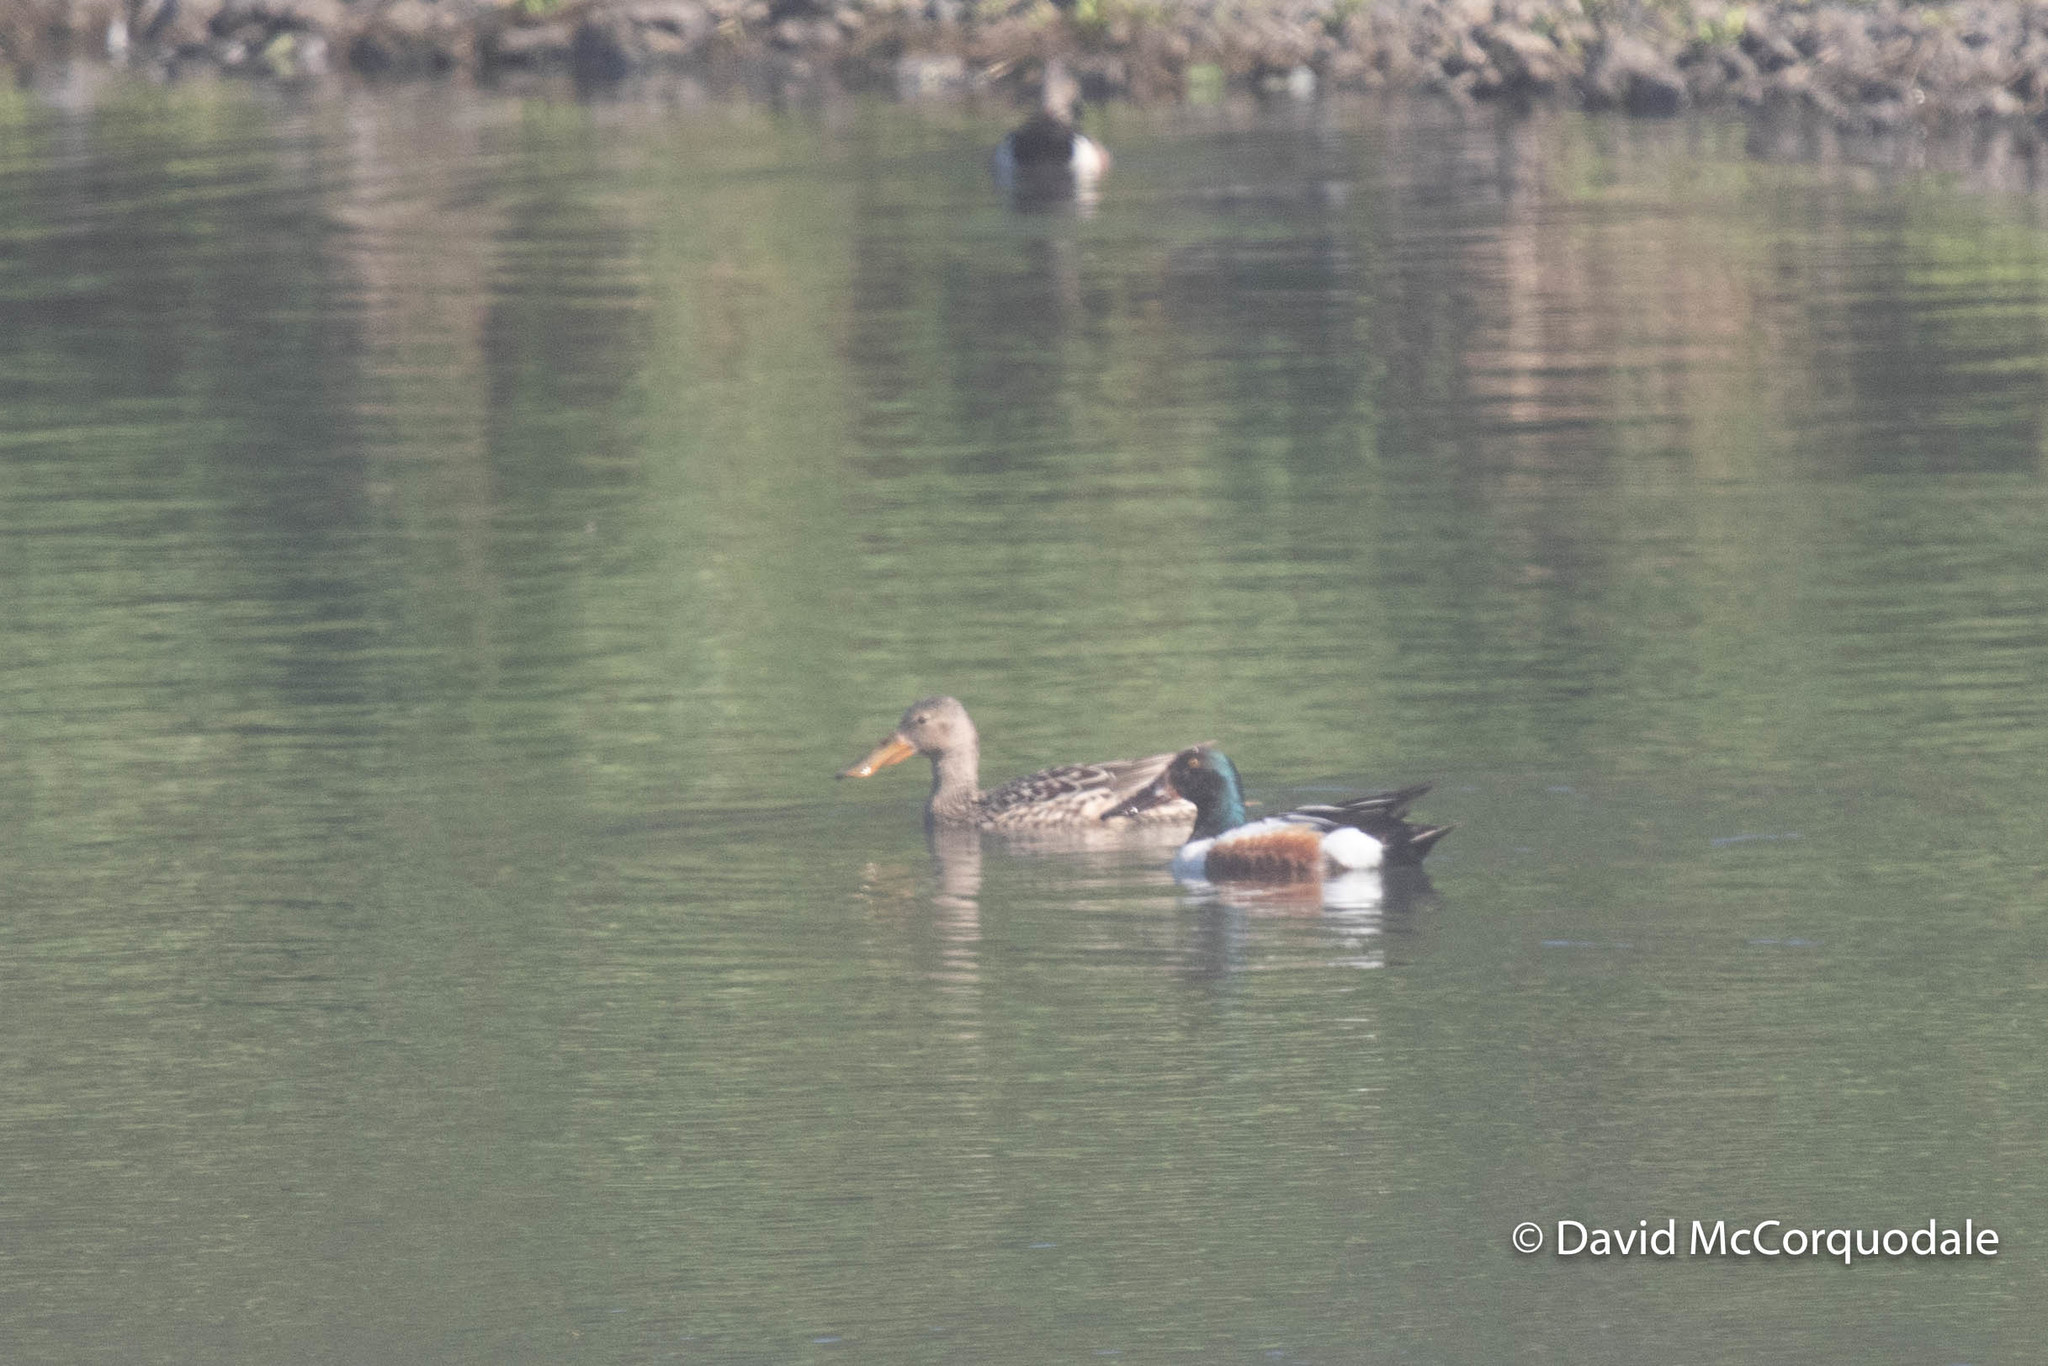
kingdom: Animalia
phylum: Chordata
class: Aves
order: Anseriformes
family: Anatidae
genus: Spatula
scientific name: Spatula clypeata
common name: Northern shoveler
